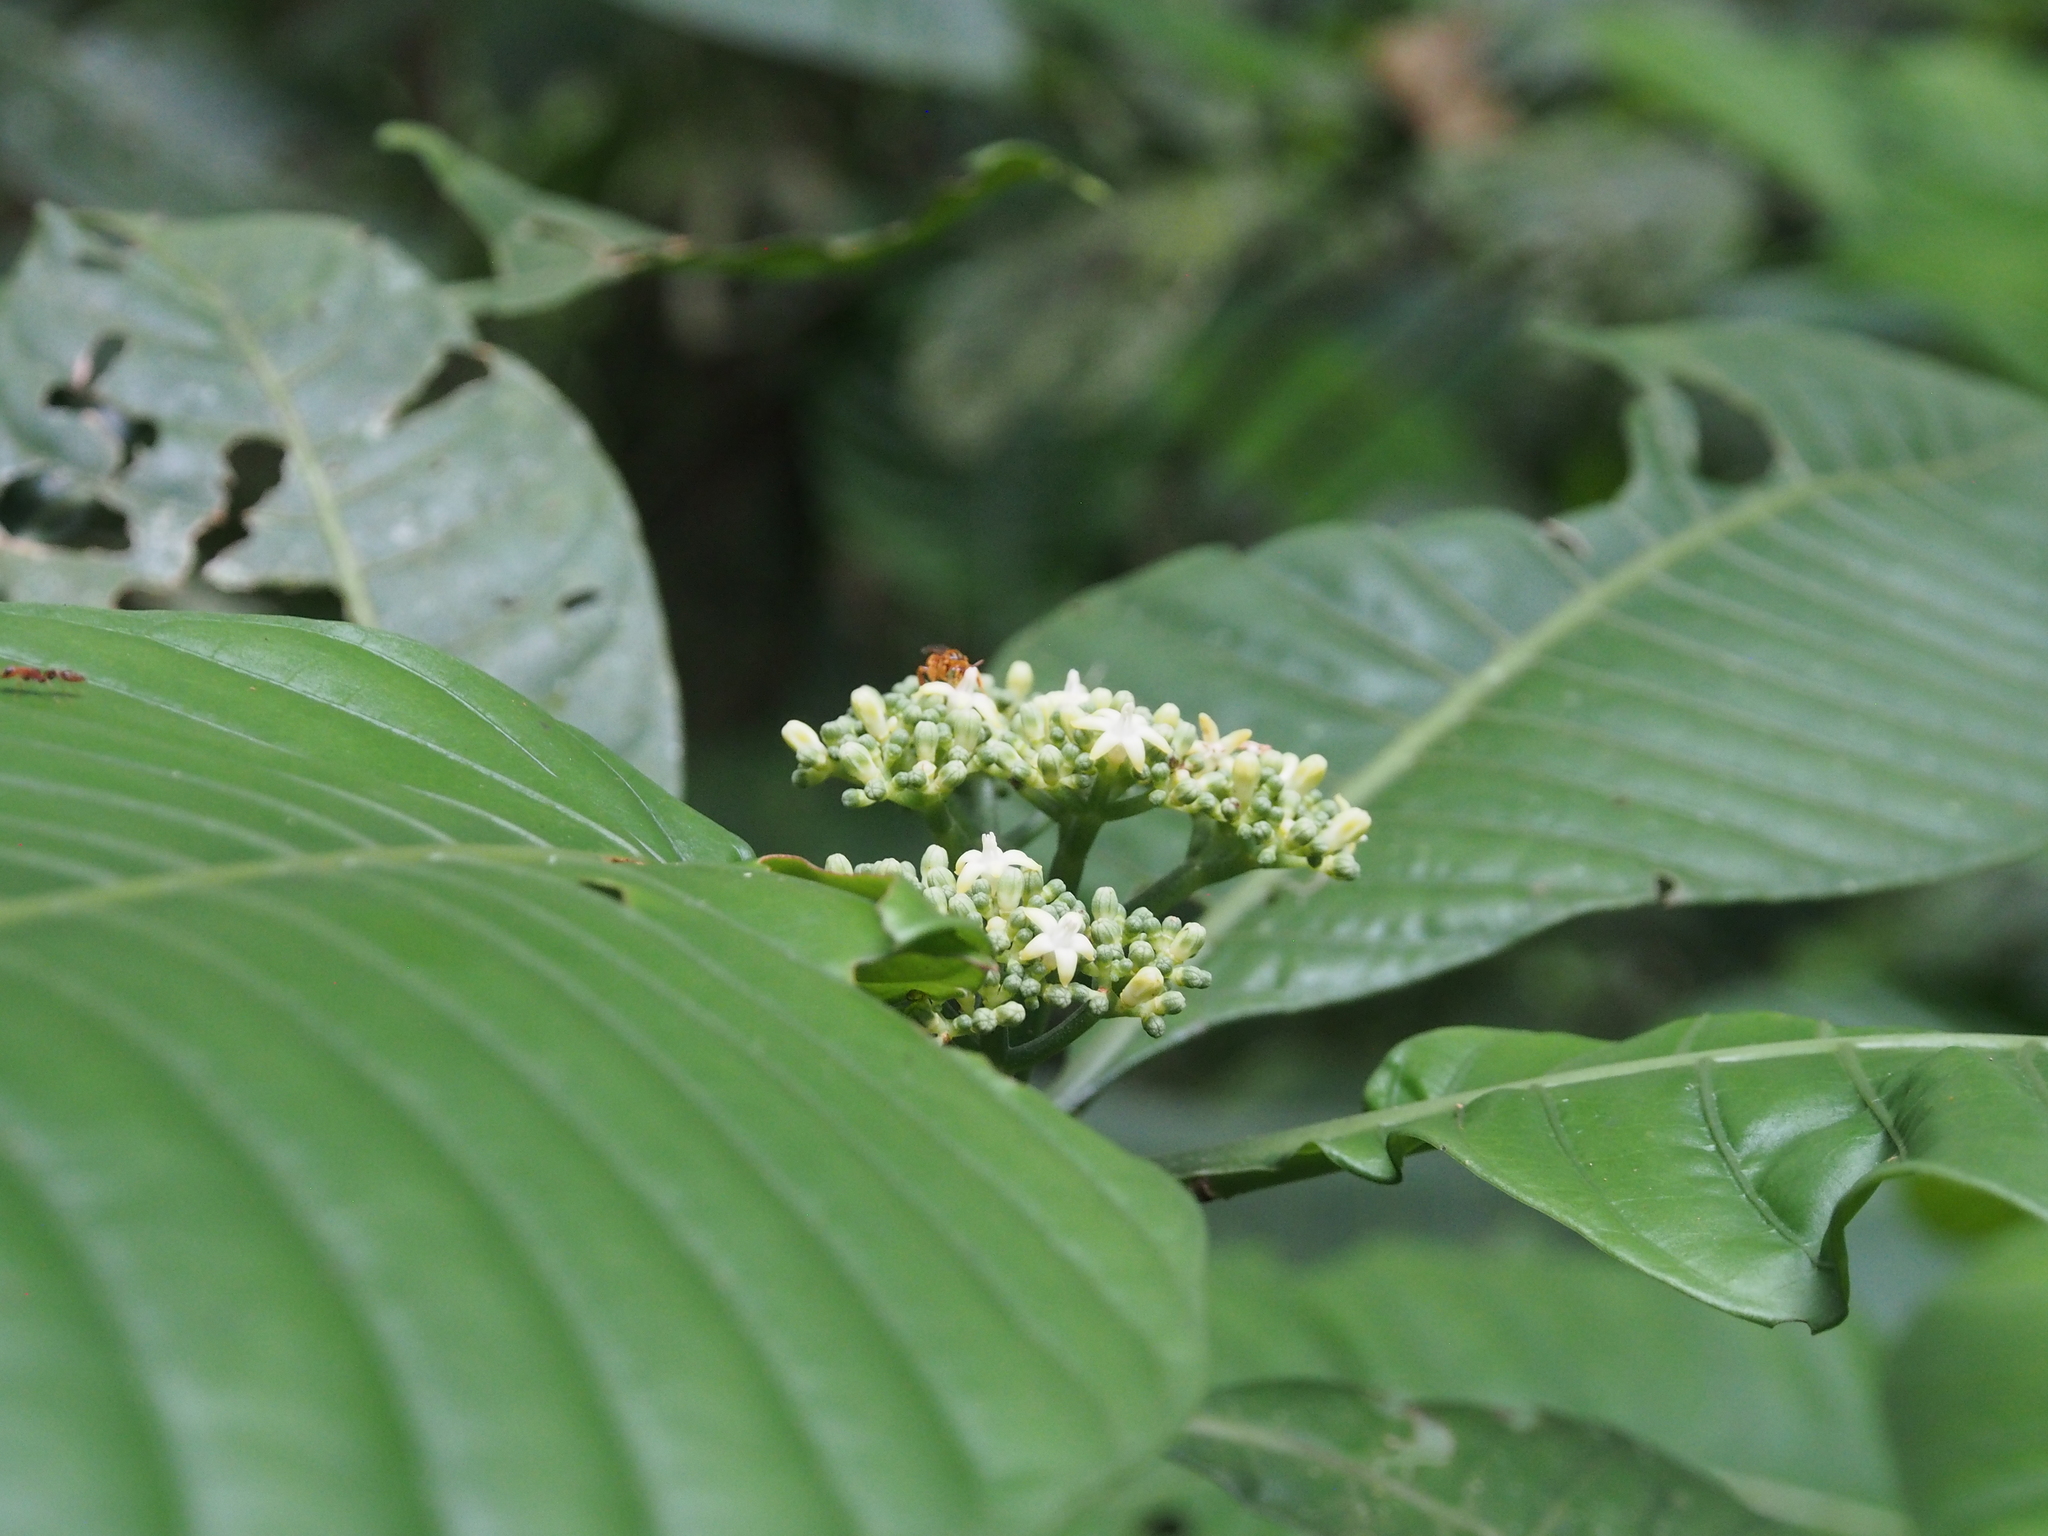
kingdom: Plantae
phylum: Tracheophyta
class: Magnoliopsida
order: Gentianales
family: Rubiaceae
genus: Psychotria
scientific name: Psychotria limonensis
